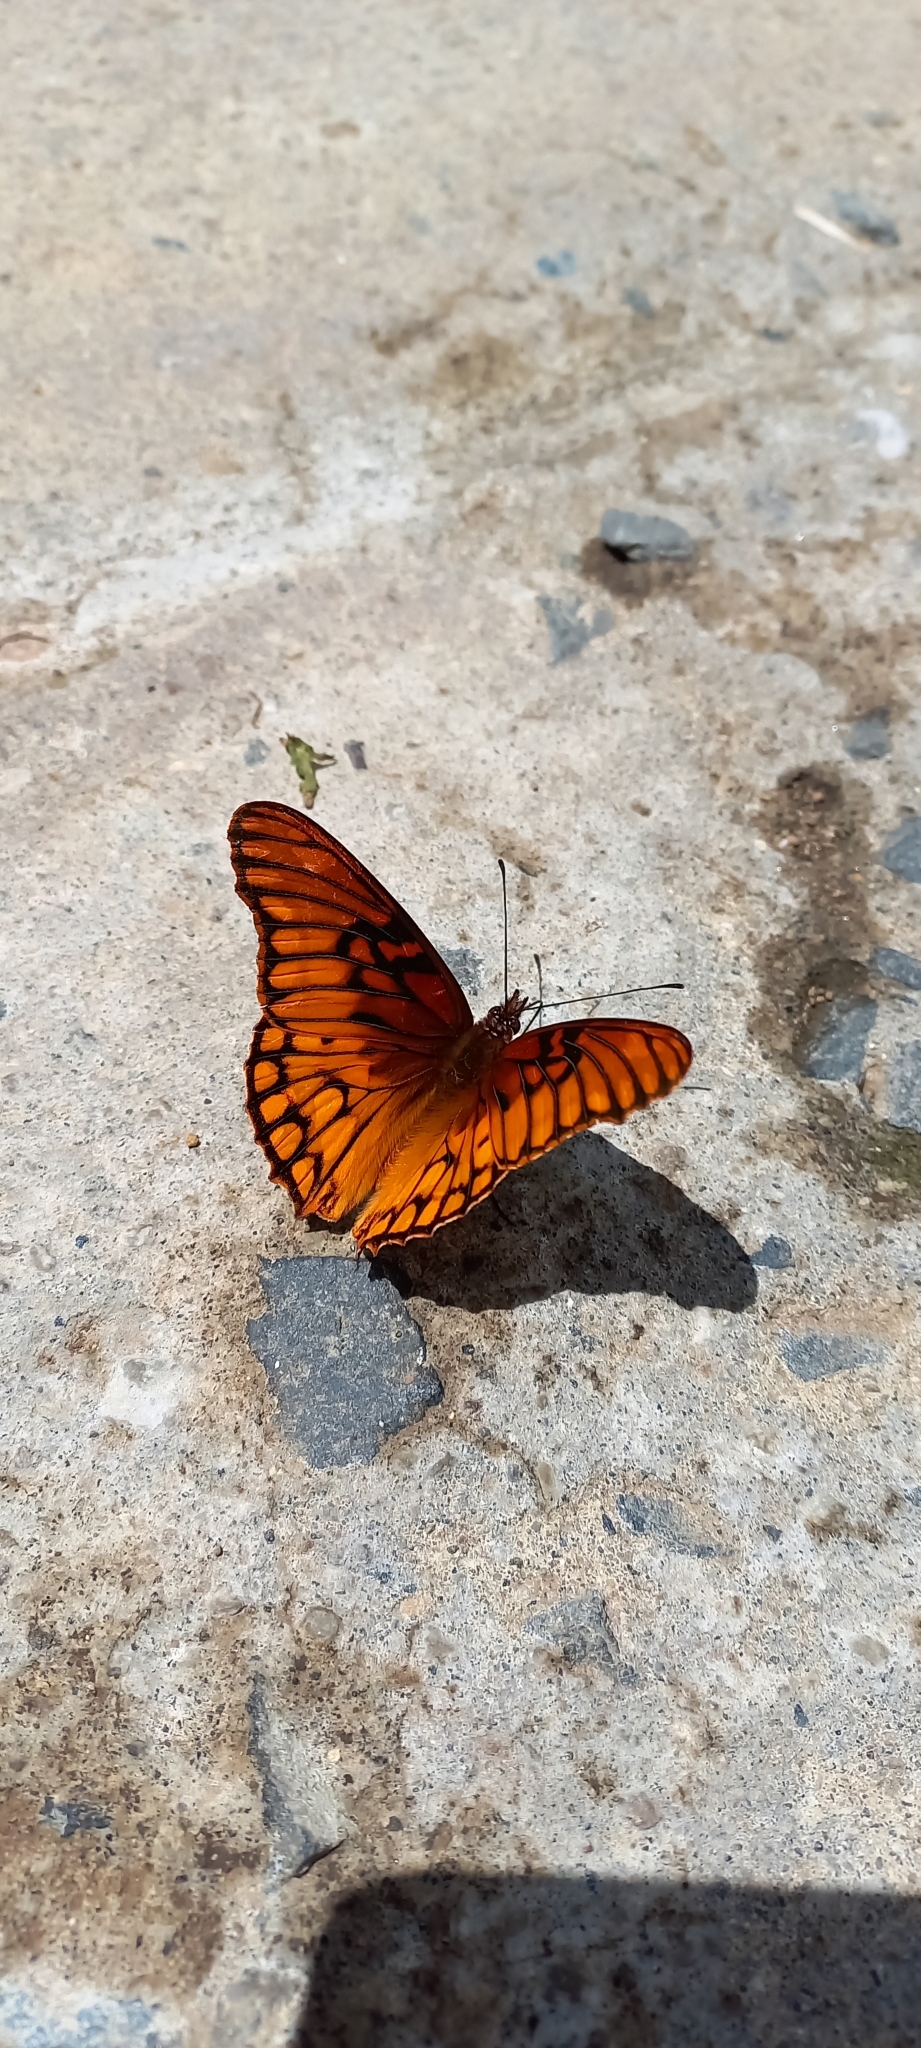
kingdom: Animalia
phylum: Arthropoda
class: Insecta
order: Lepidoptera
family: Nymphalidae
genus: Dione
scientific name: Dione moneta
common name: Mexican silverspot
